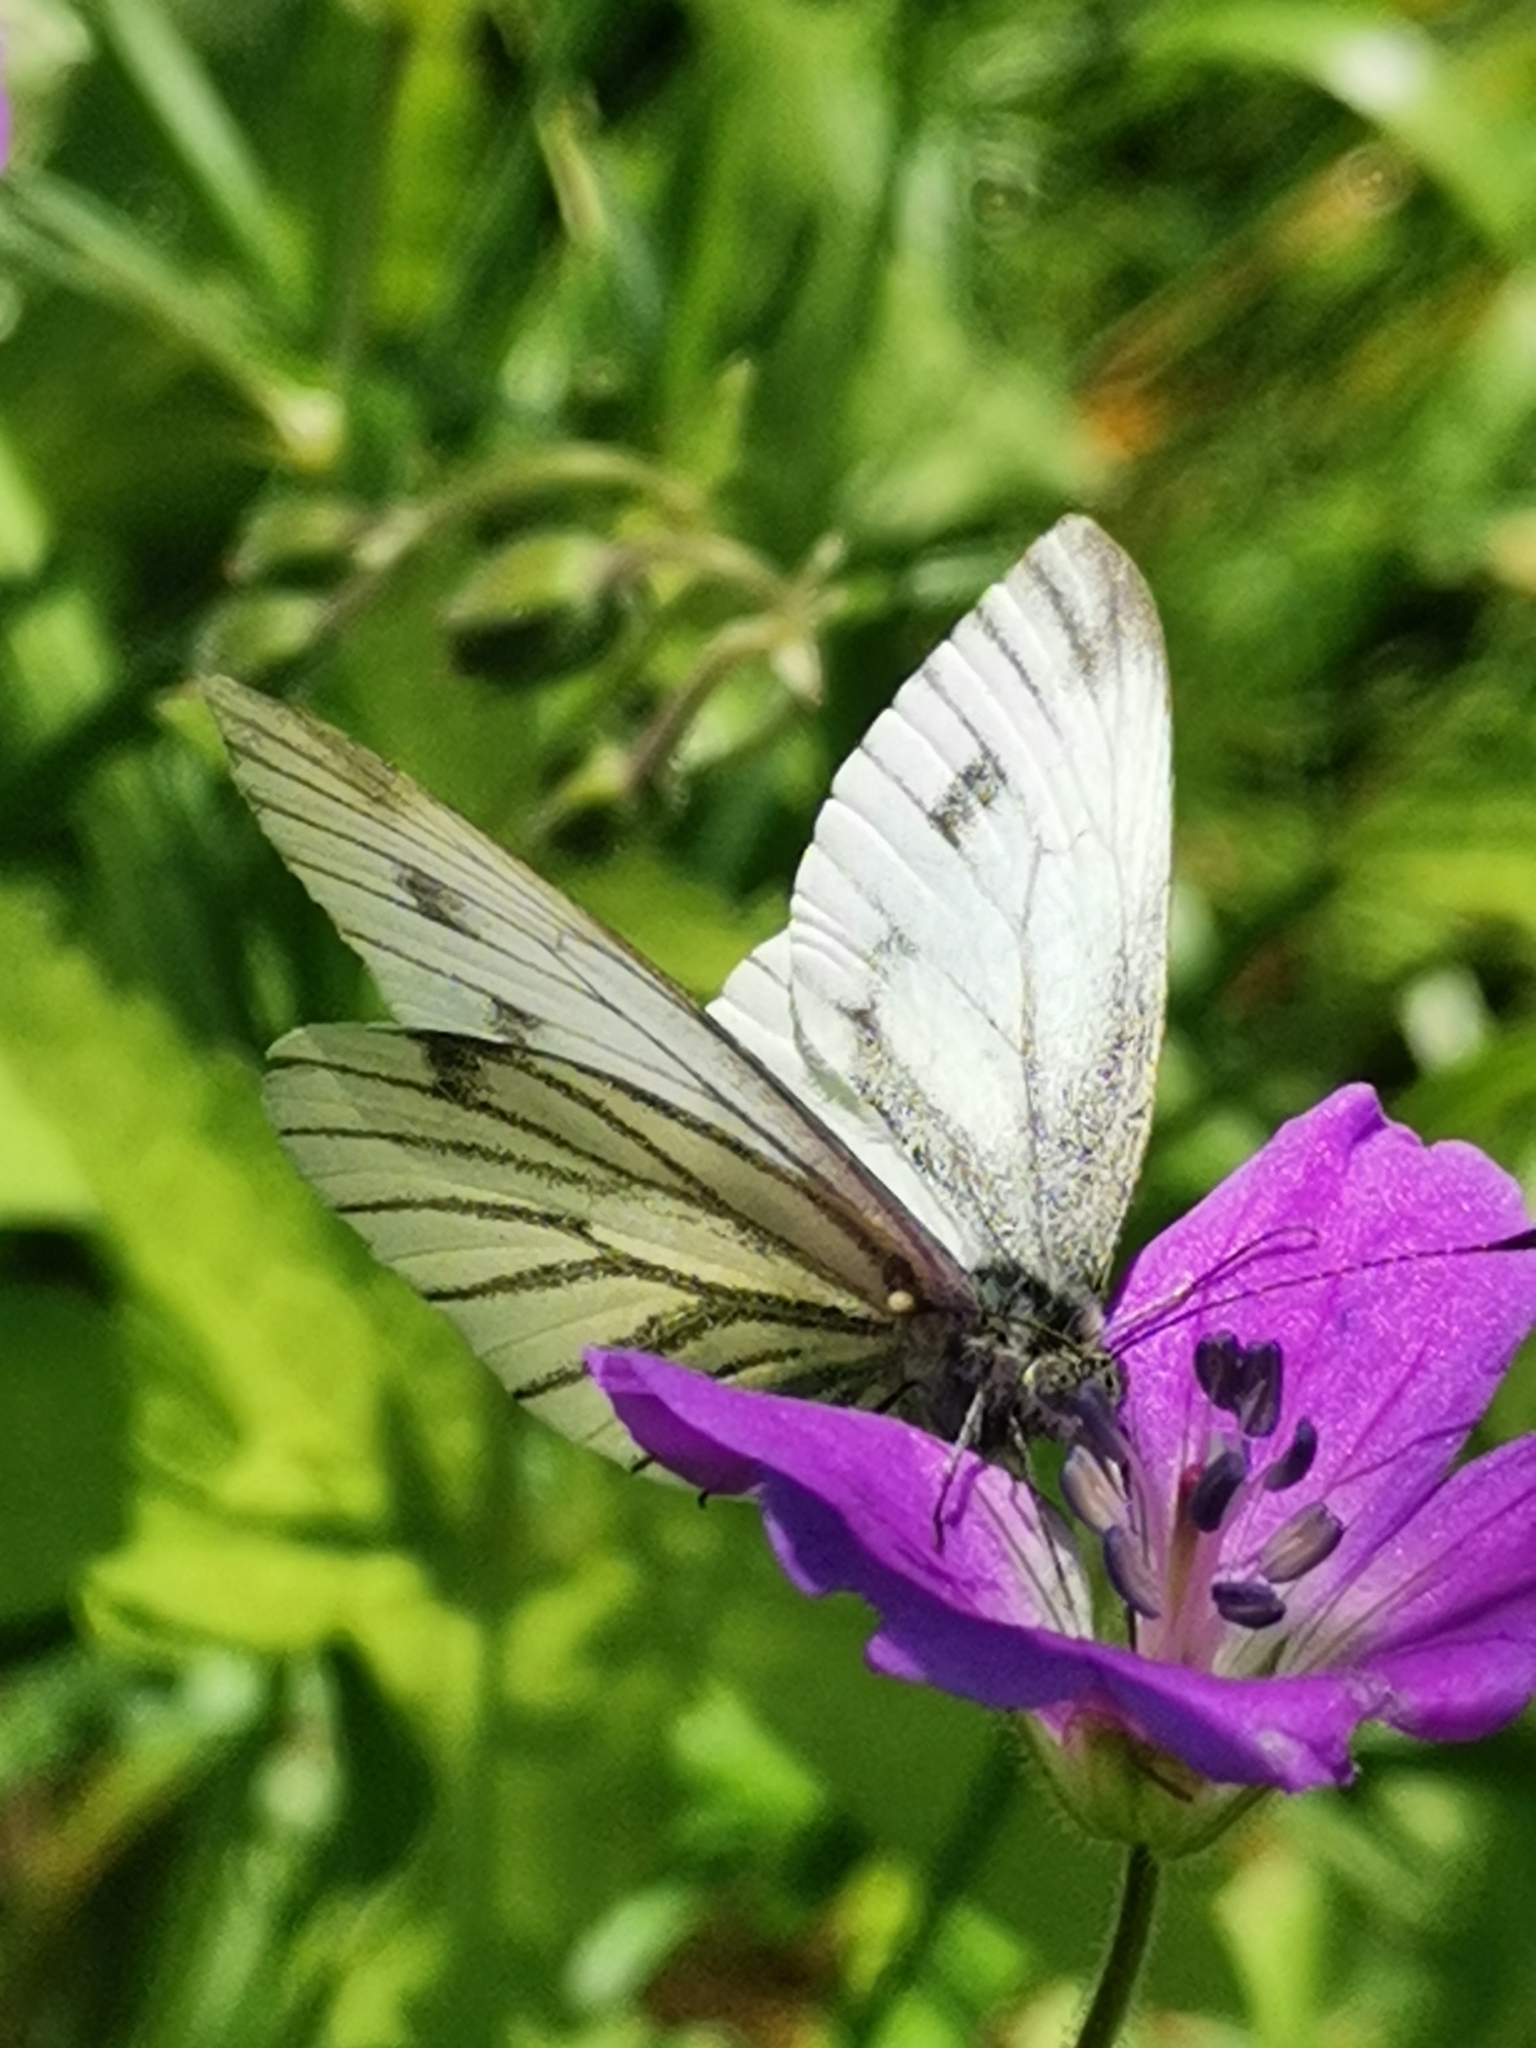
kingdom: Animalia
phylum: Arthropoda
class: Insecta
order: Lepidoptera
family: Pieridae
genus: Pieris
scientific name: Pieris napi
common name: Green-veined white
